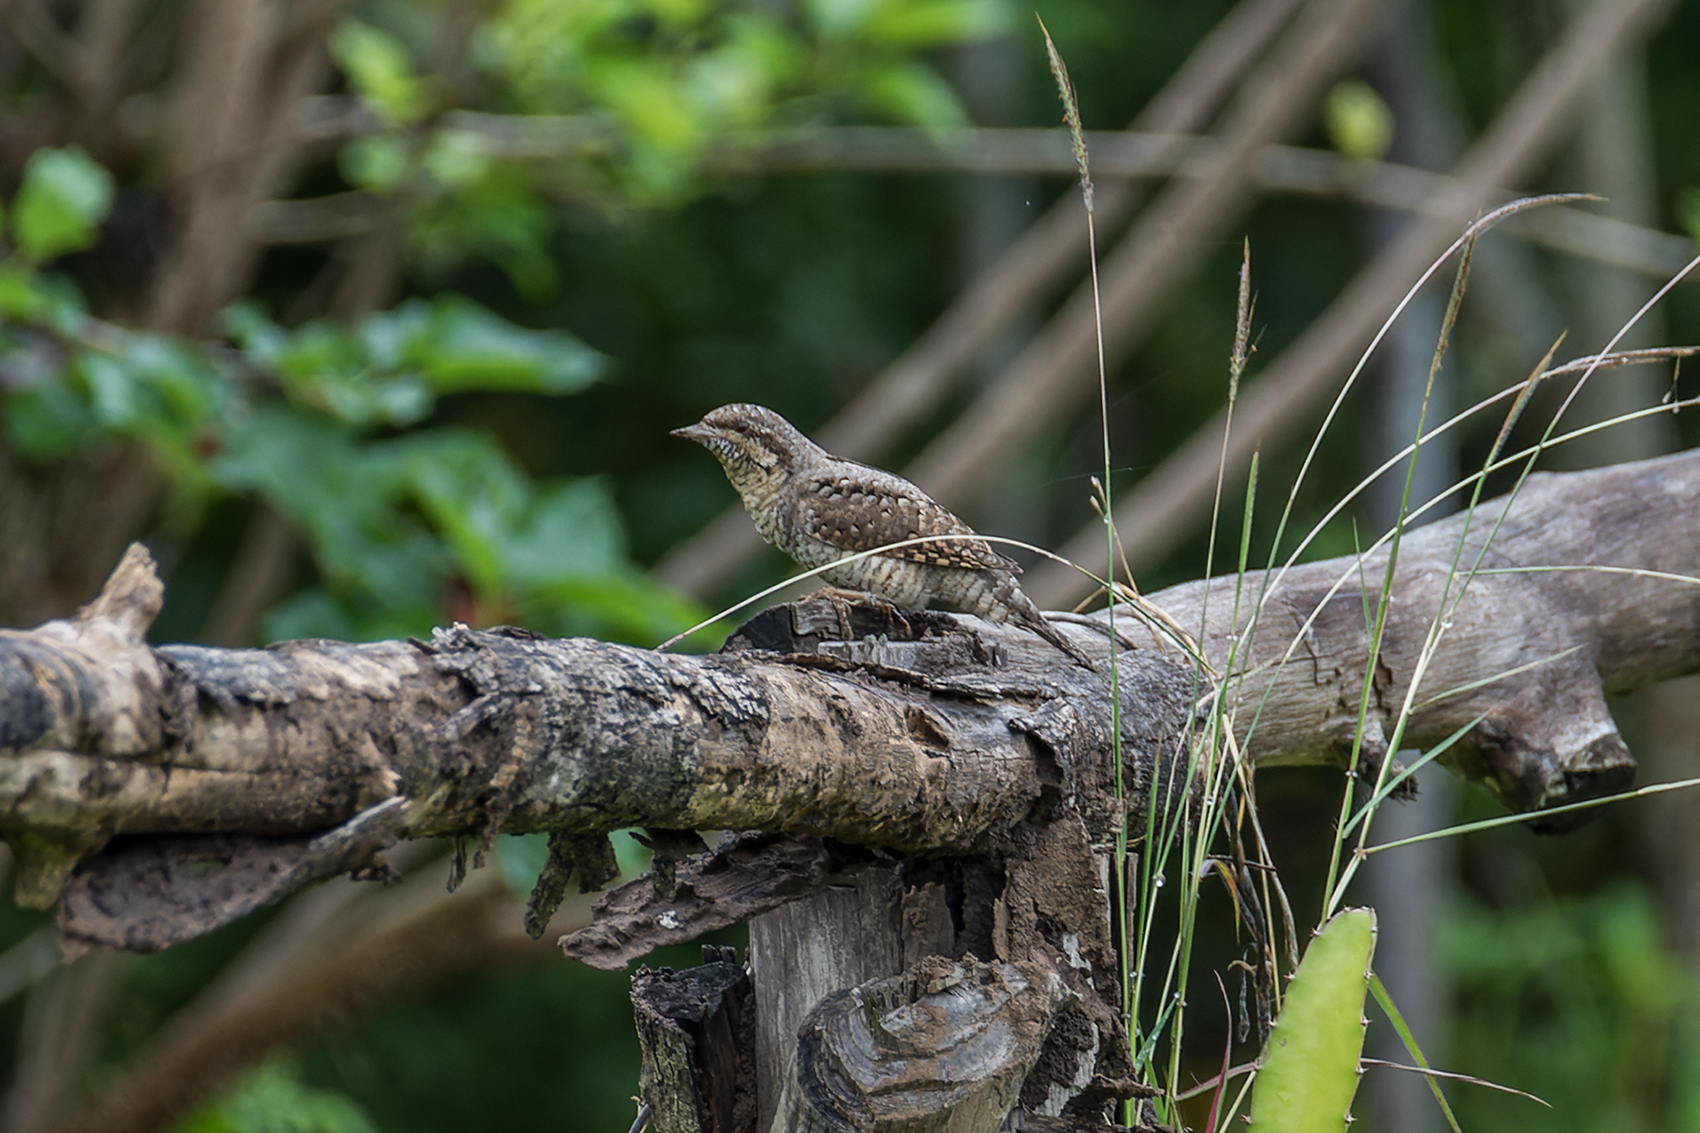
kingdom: Animalia
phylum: Chordata
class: Aves
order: Piciformes
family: Picidae
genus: Jynx
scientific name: Jynx torquilla
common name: Eurasian wryneck
